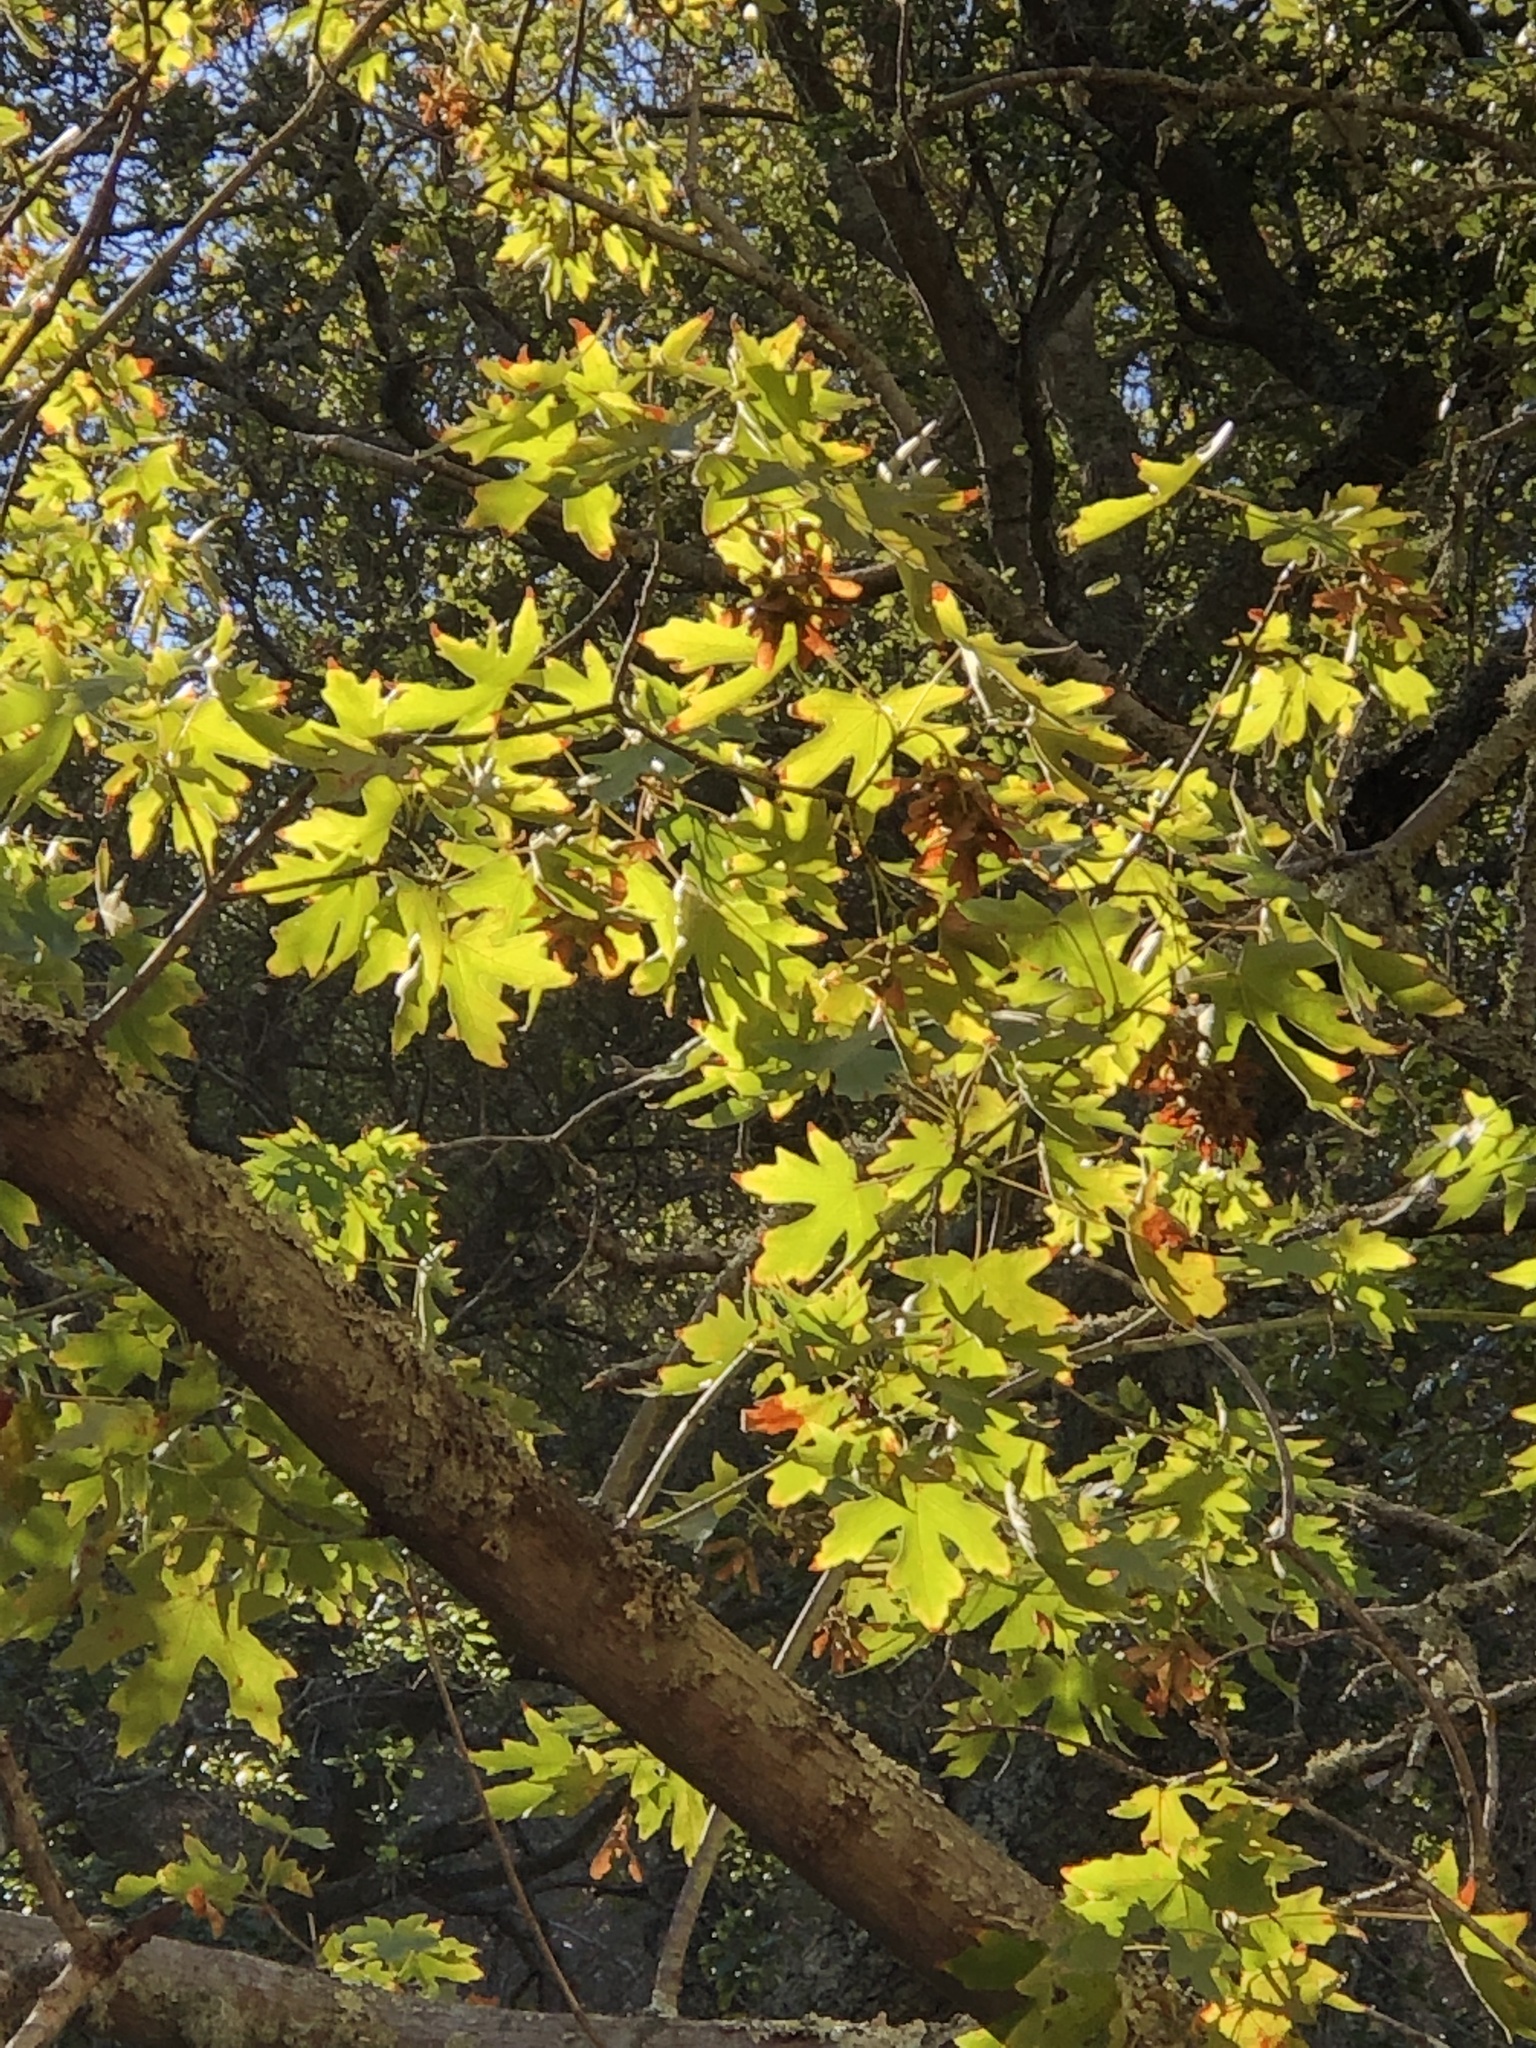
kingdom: Plantae
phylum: Tracheophyta
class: Magnoliopsida
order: Sapindales
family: Sapindaceae
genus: Acer
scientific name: Acer macrophyllum
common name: Oregon maple
